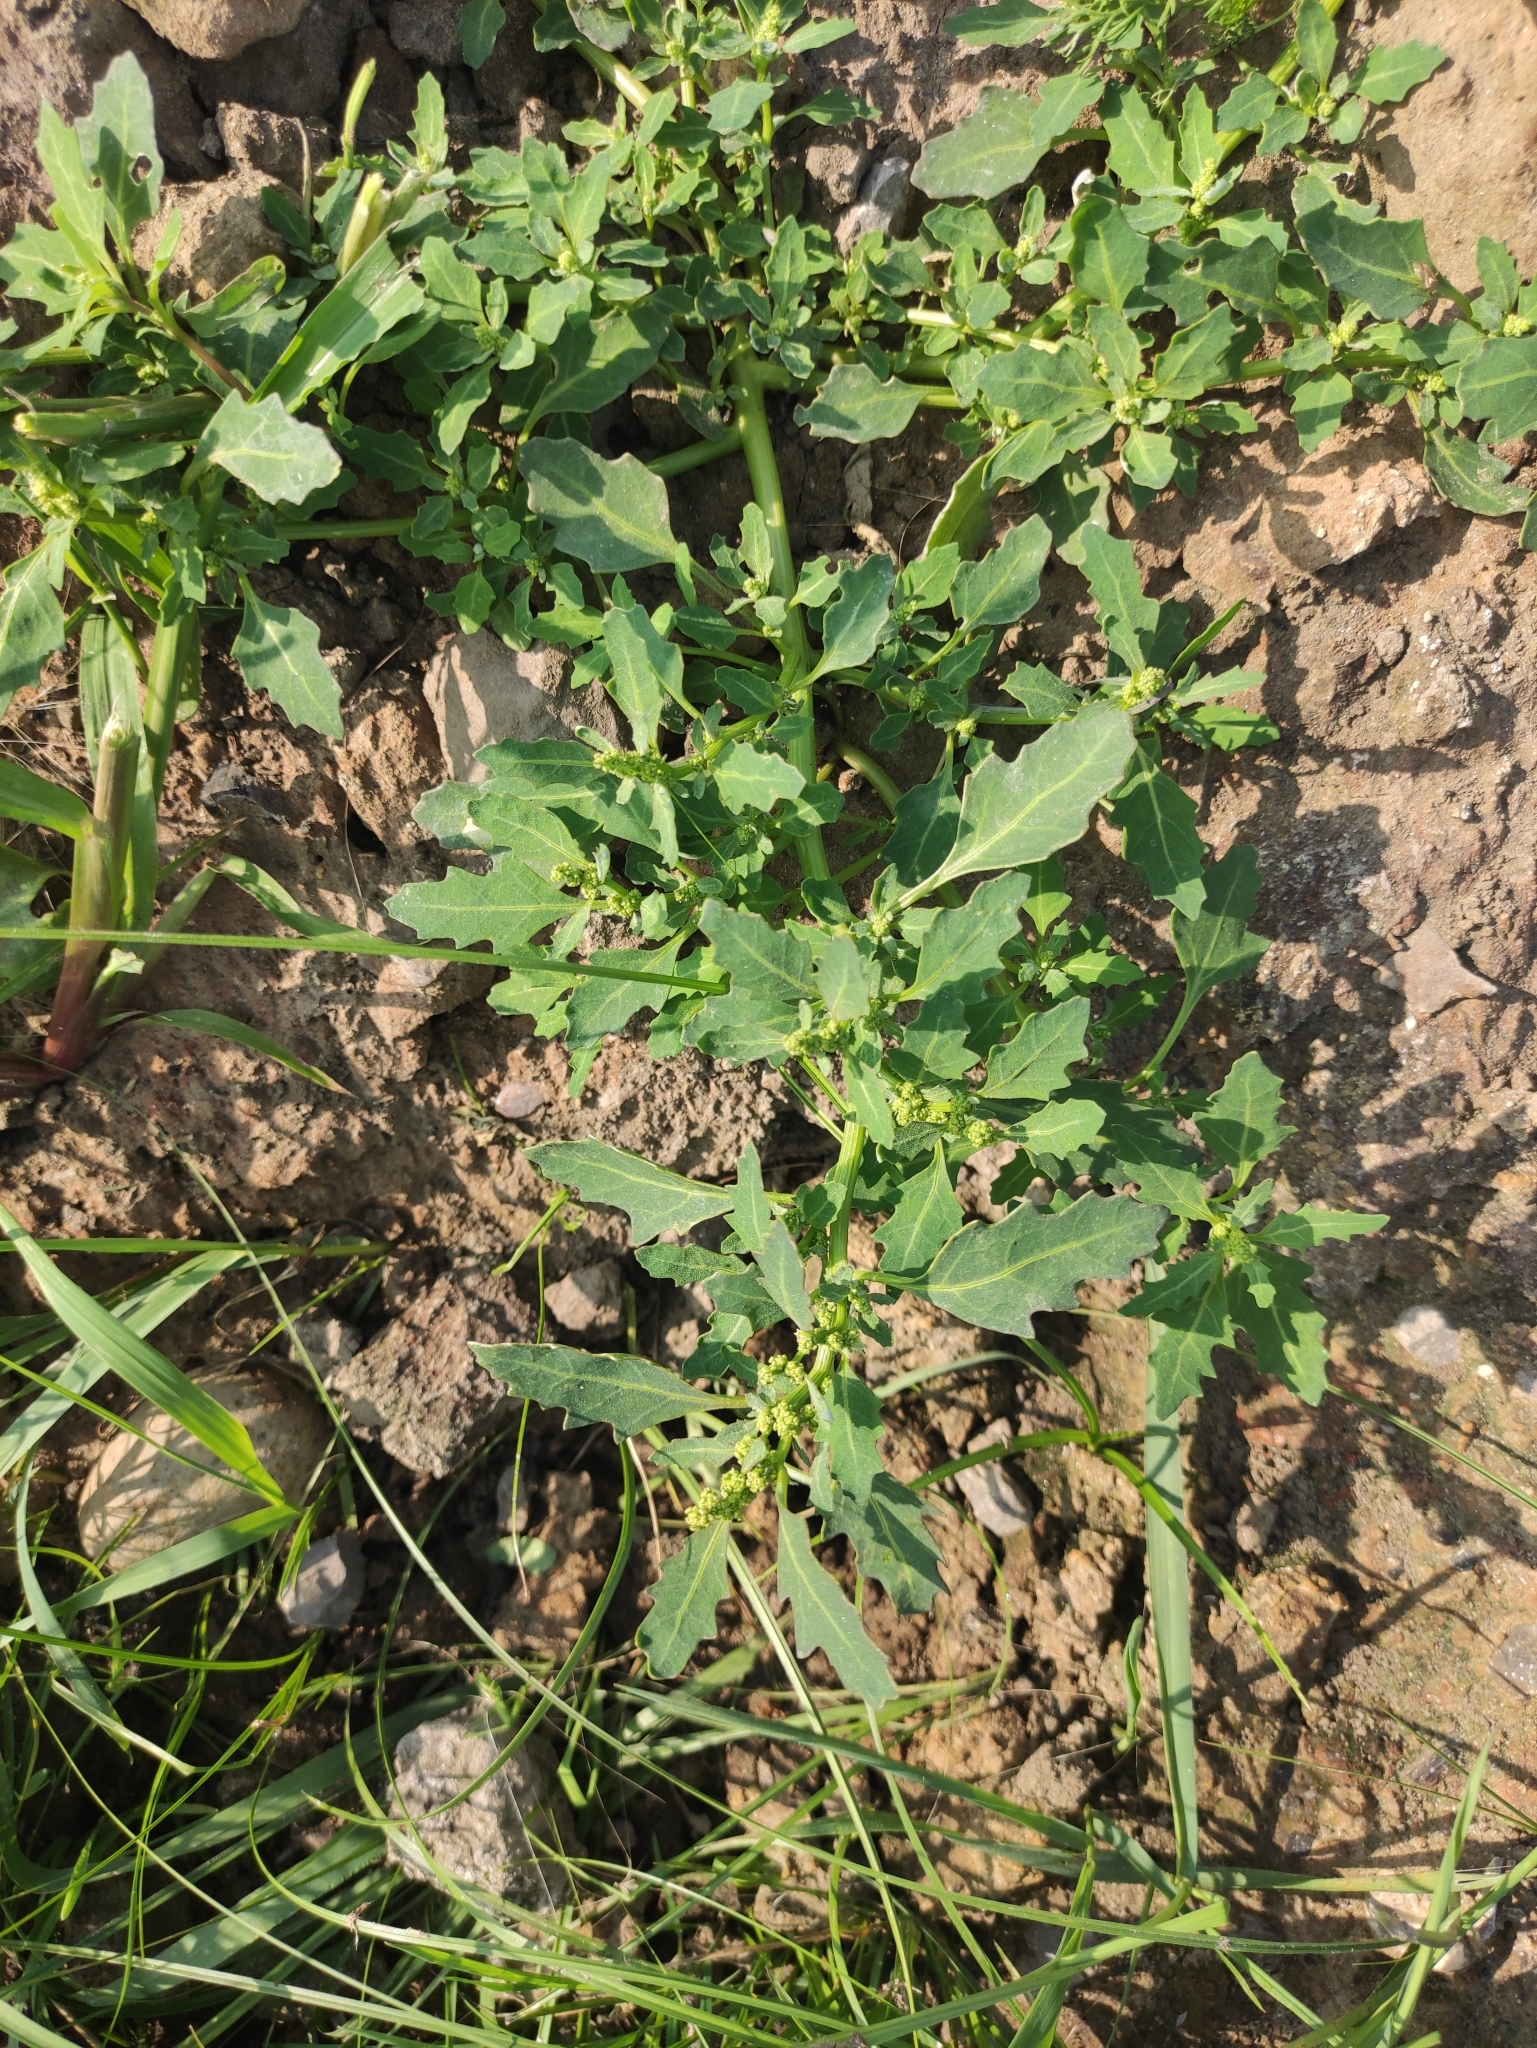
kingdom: Plantae
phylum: Tracheophyta
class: Magnoliopsida
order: Caryophyllales
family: Amaranthaceae
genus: Oxybasis
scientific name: Oxybasis glauca
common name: Glaucous goosefoot
